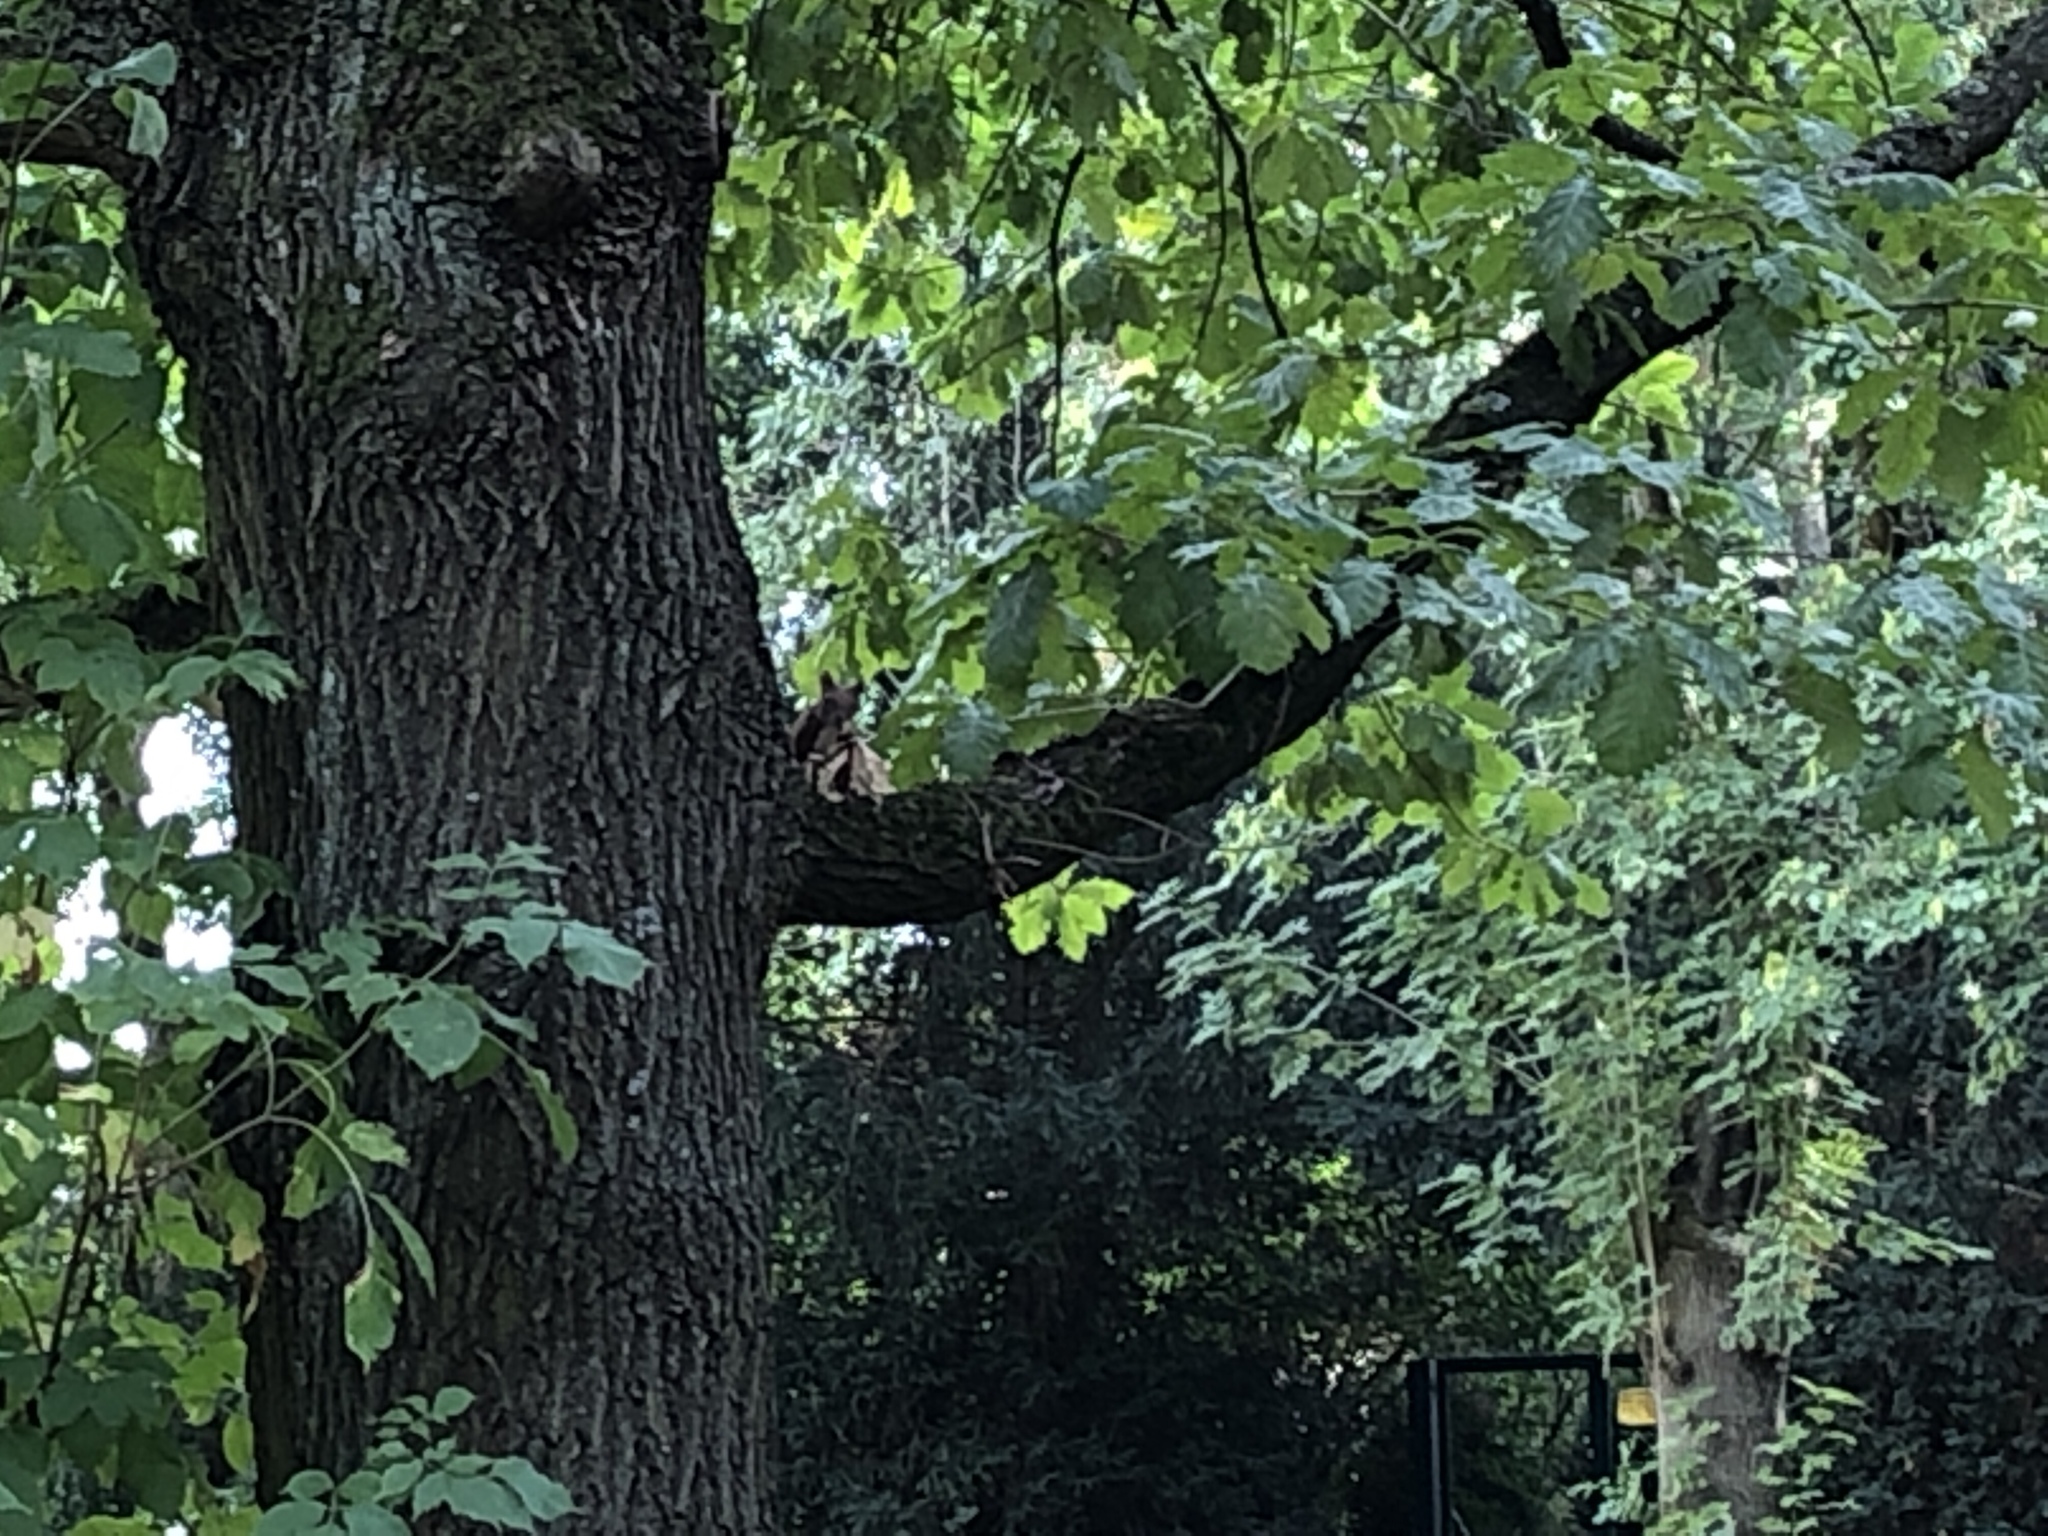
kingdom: Animalia
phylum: Chordata
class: Mammalia
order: Rodentia
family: Sciuridae
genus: Sciurus
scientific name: Sciurus vulgaris
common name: Eurasian red squirrel
